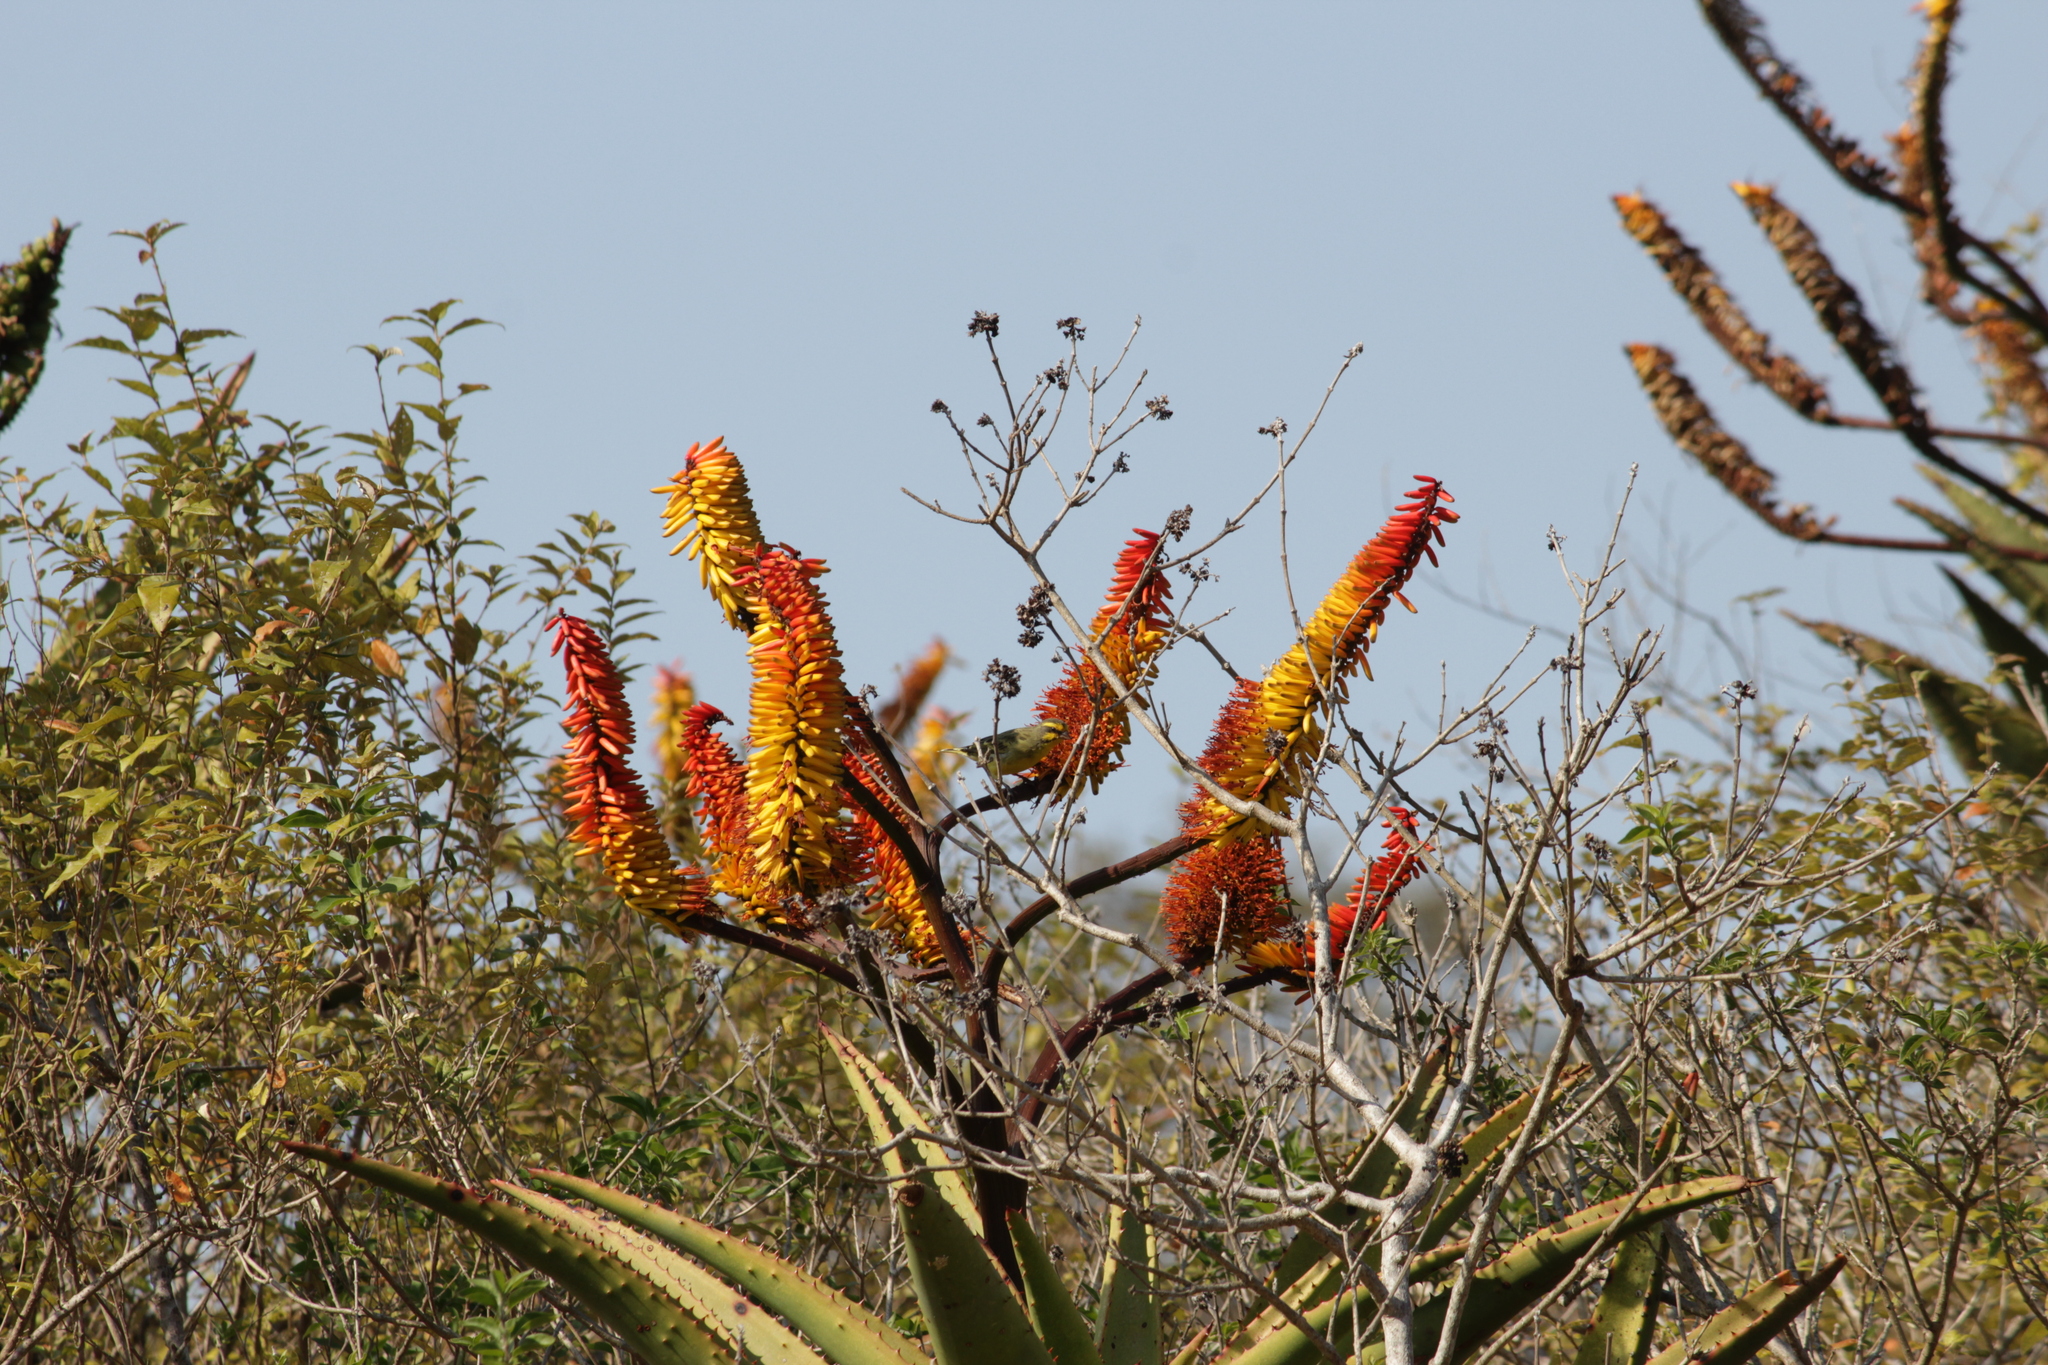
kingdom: Animalia
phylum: Chordata
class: Aves
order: Passeriformes
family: Fringillidae
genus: Crithagra
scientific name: Crithagra mozambica
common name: Yellow-fronted canary
